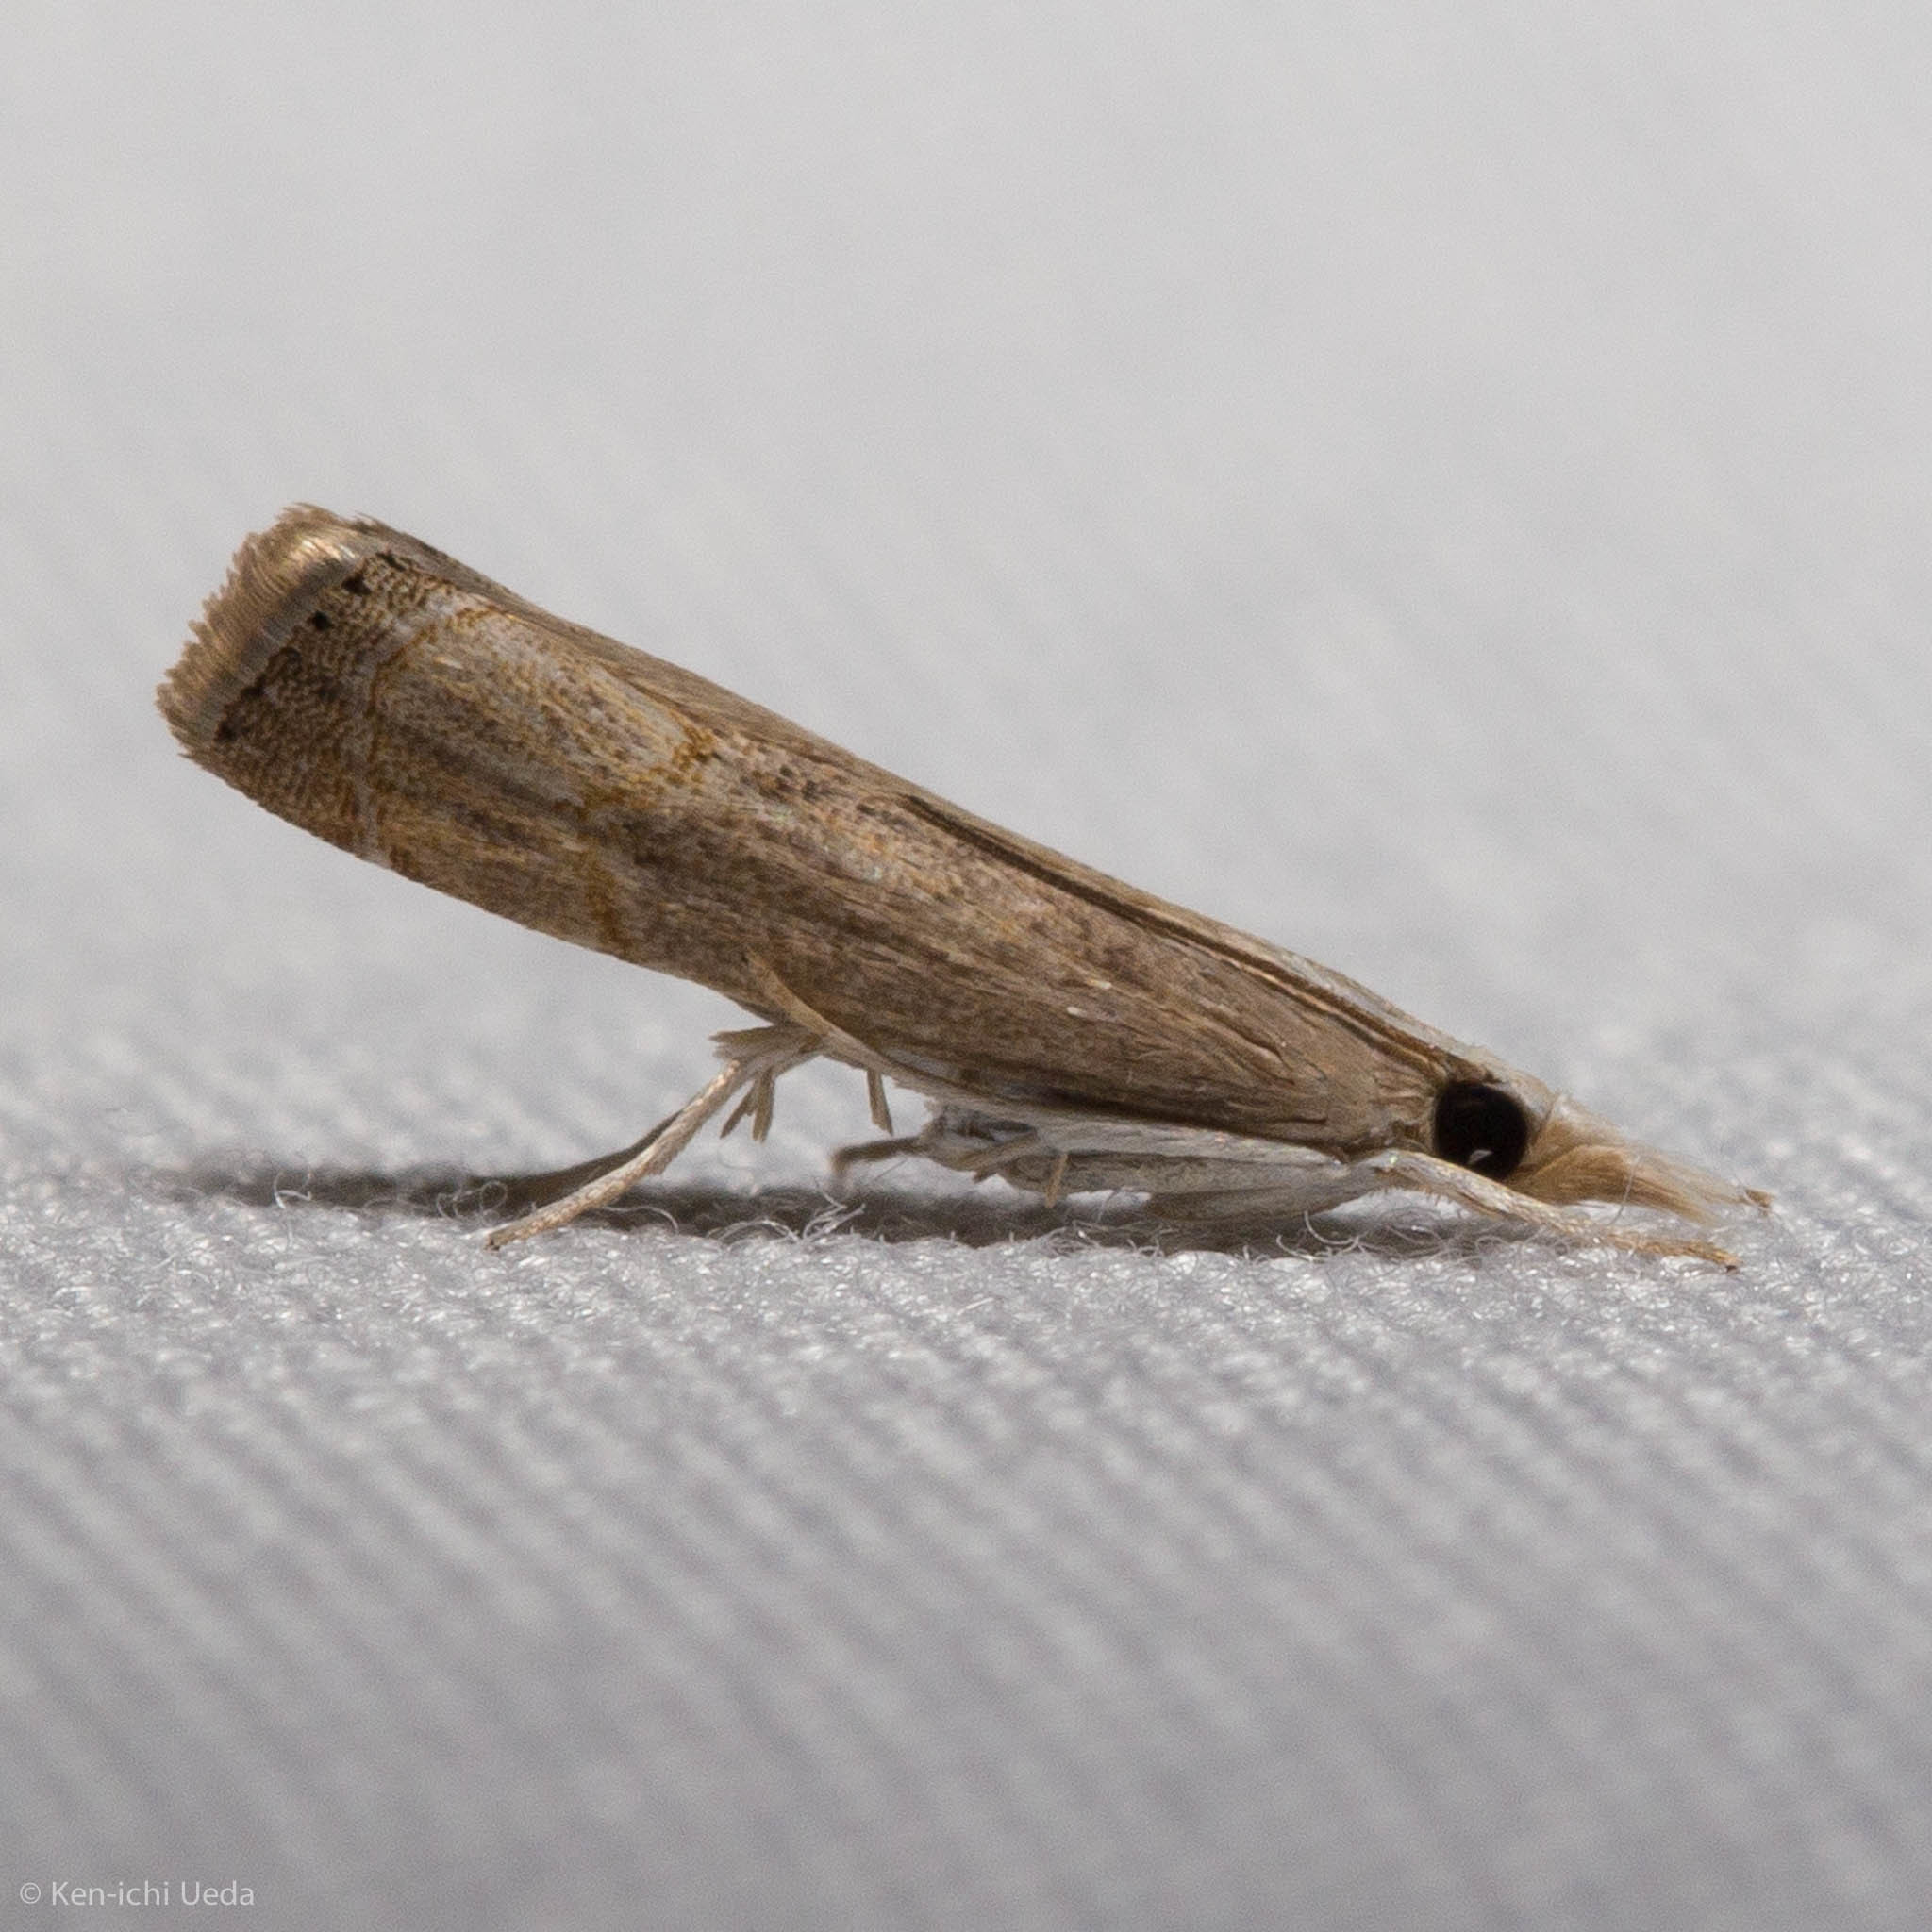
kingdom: Animalia
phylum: Arthropoda
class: Insecta
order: Lepidoptera
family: Crambidae
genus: Parapediasia
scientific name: Parapediasia teterellus
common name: Bluegrass webworm moth
